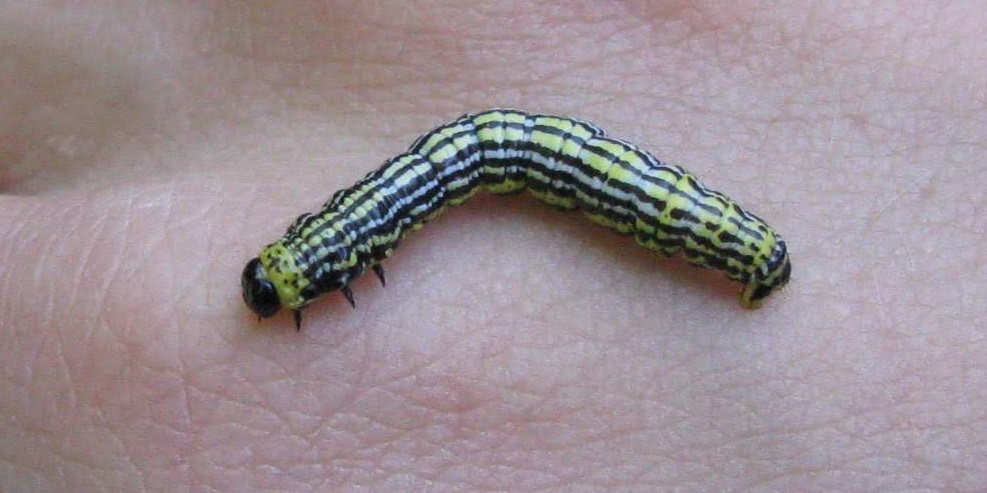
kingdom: Animalia
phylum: Arthropoda
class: Insecta
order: Lepidoptera
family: Geometridae
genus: Abraxas
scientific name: Abraxas sylvata
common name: Clouded magpie
